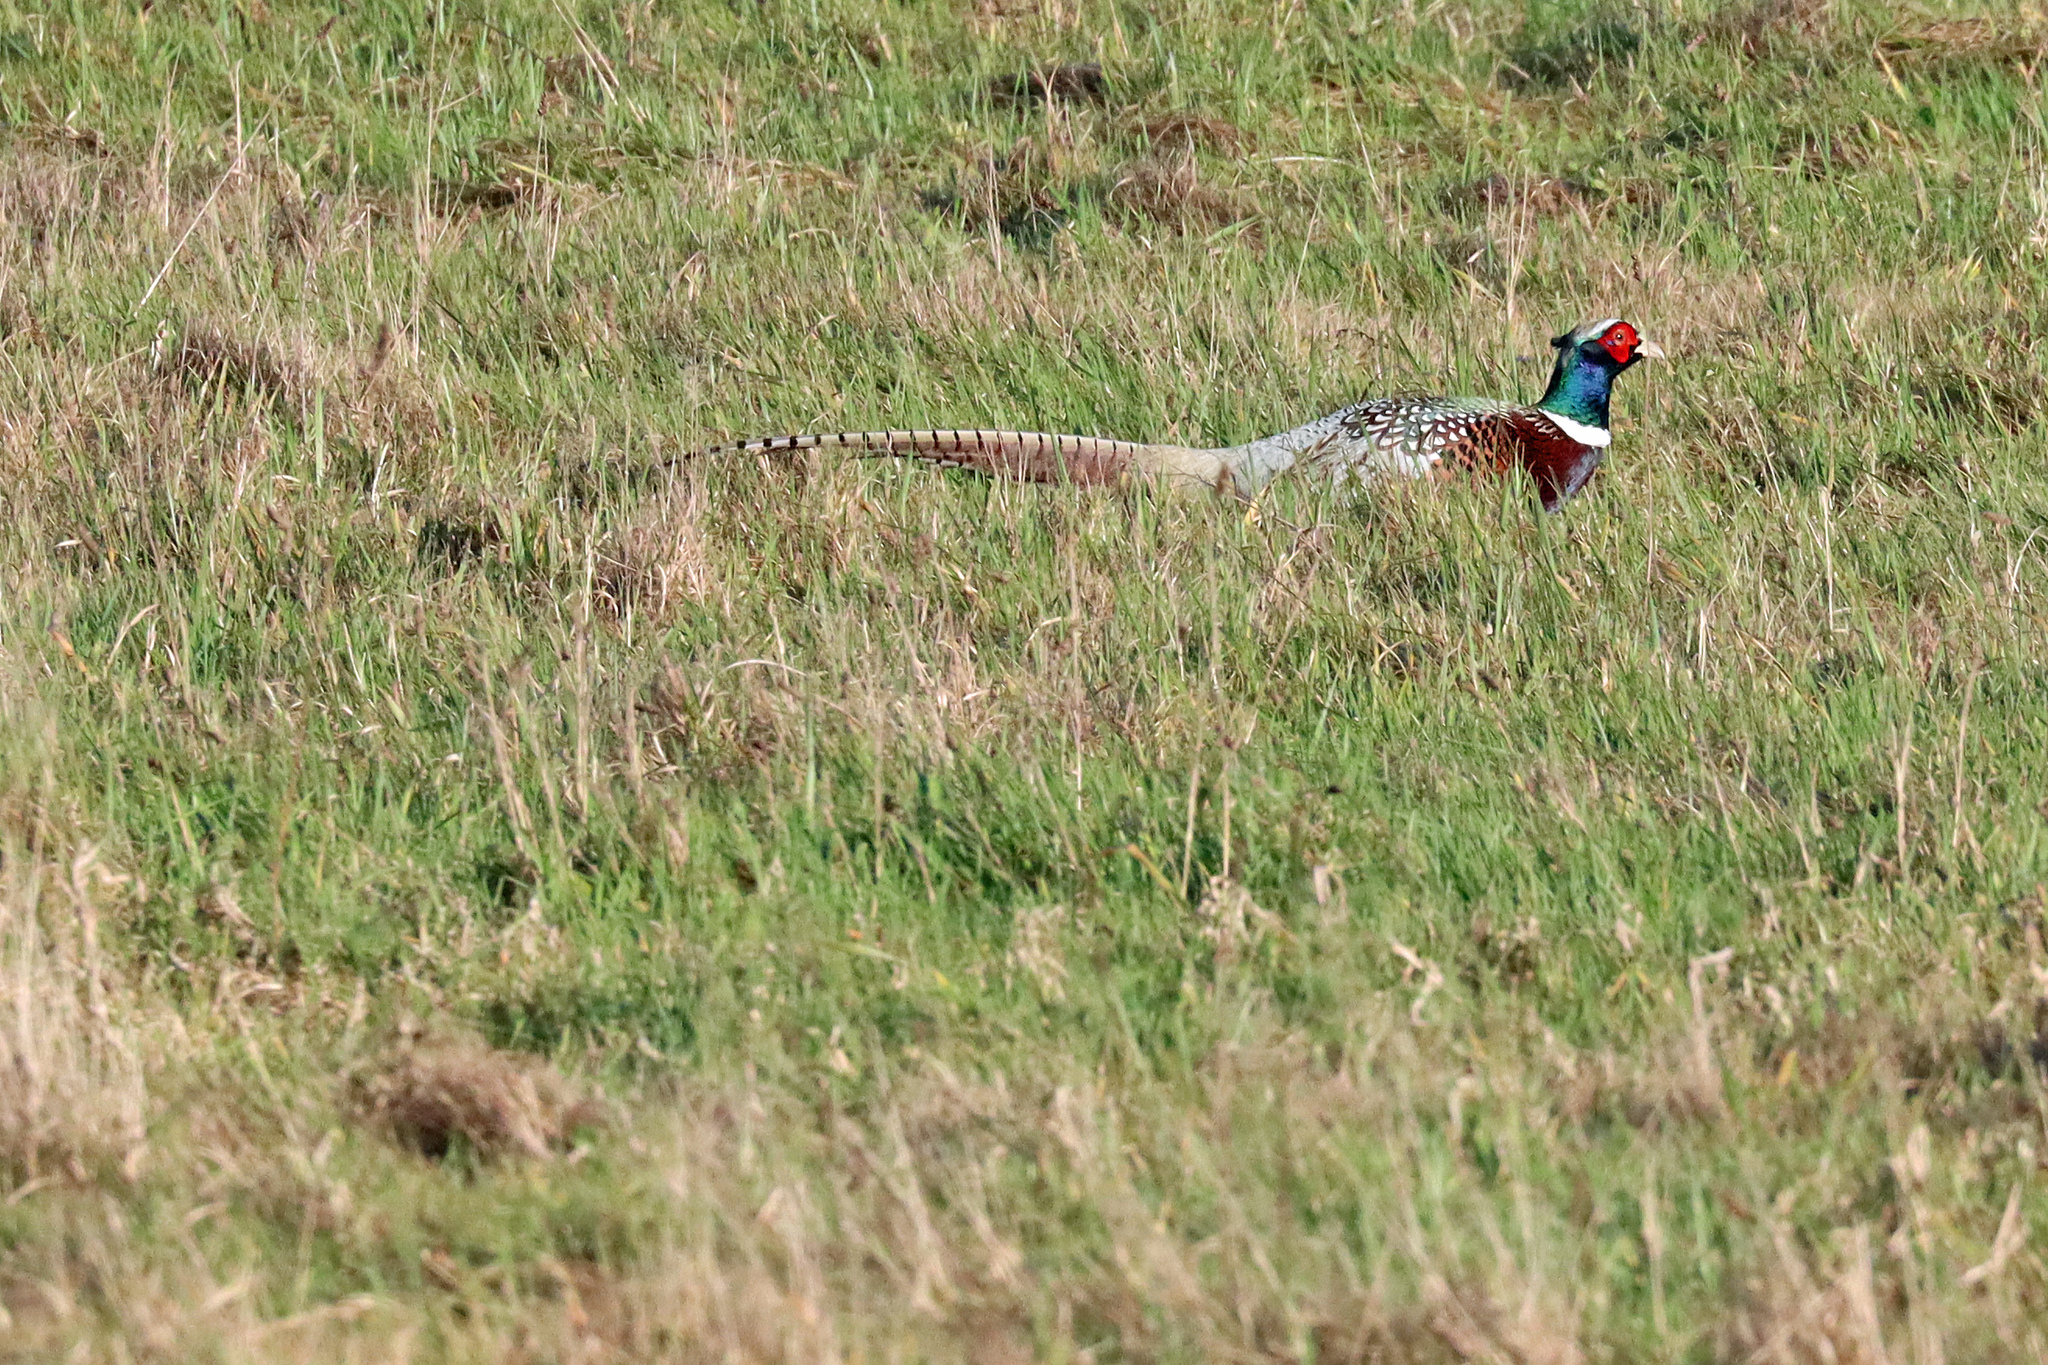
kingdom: Animalia
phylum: Chordata
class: Aves
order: Galliformes
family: Phasianidae
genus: Phasianus
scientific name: Phasianus colchicus
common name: Common pheasant
